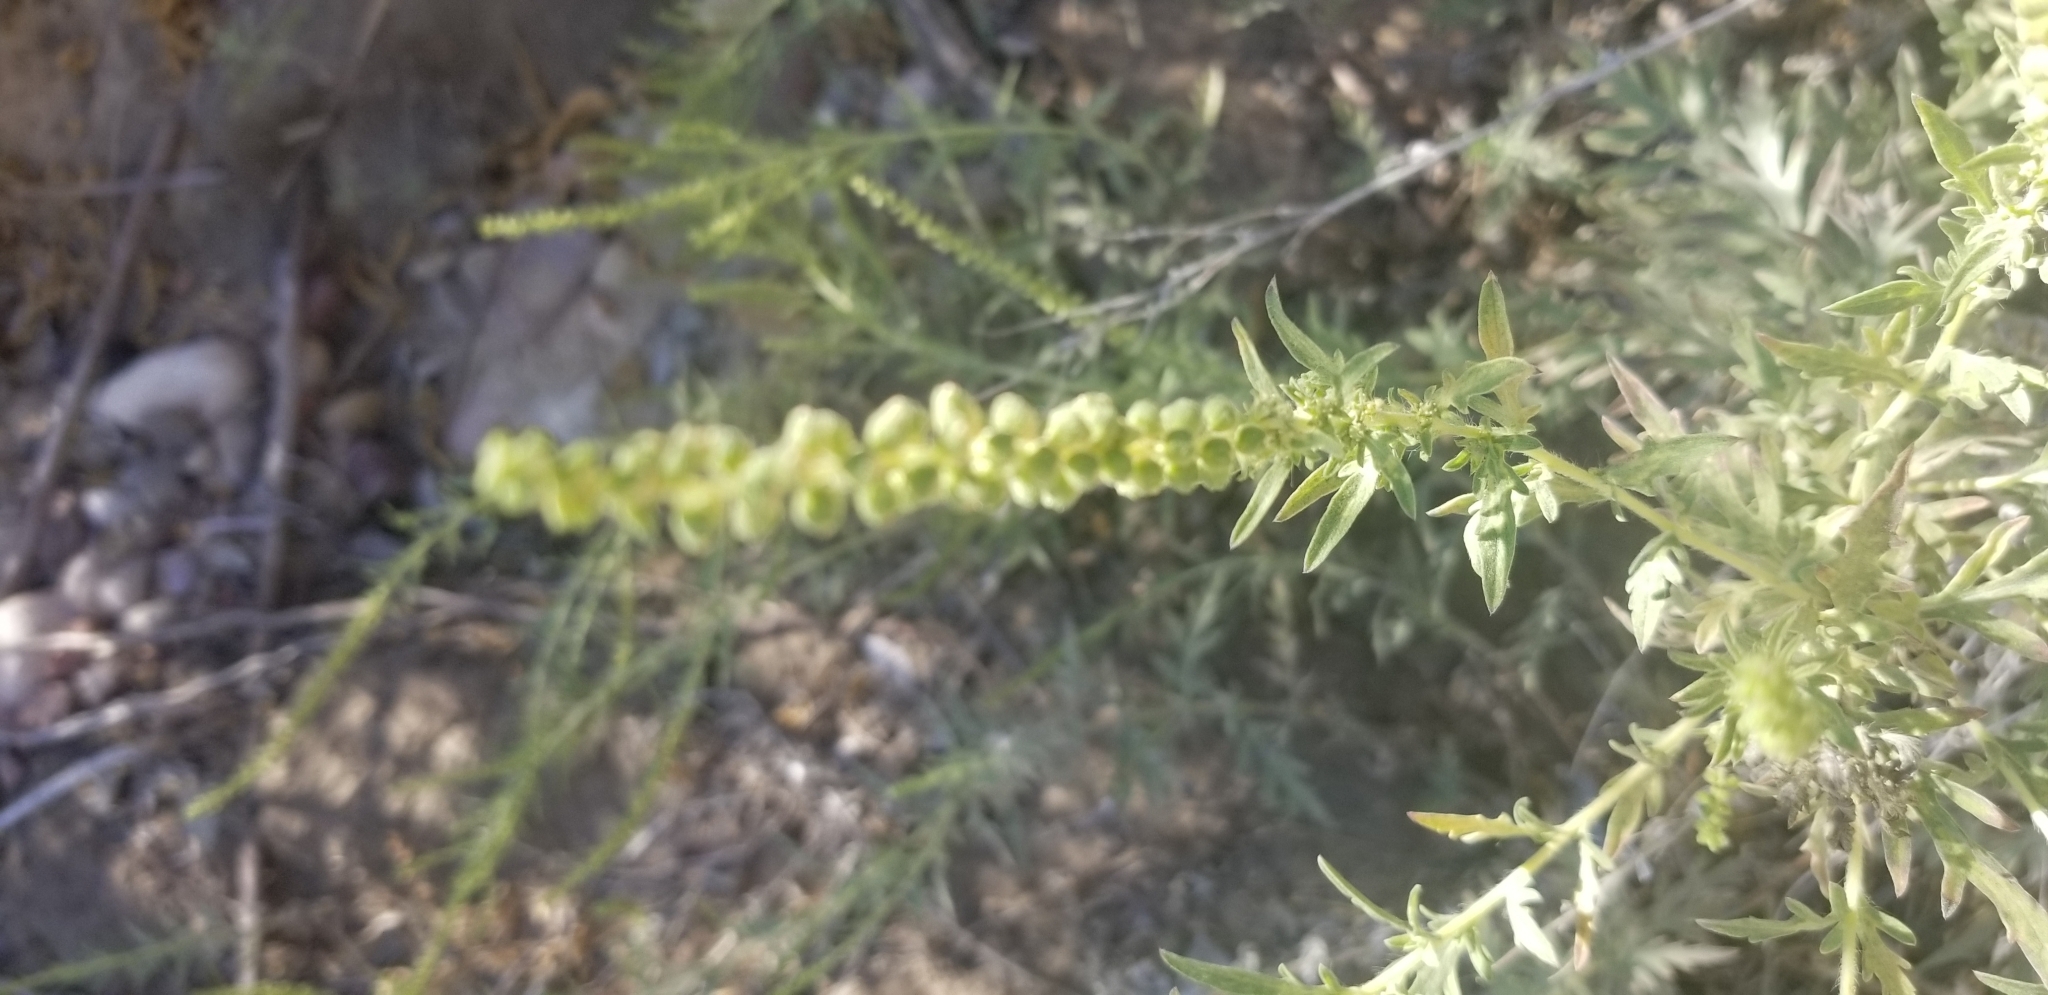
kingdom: Plantae
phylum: Tracheophyta
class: Magnoliopsida
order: Asterales
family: Asteraceae
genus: Ambrosia
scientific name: Ambrosia psilostachya
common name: Perennial ragweed
